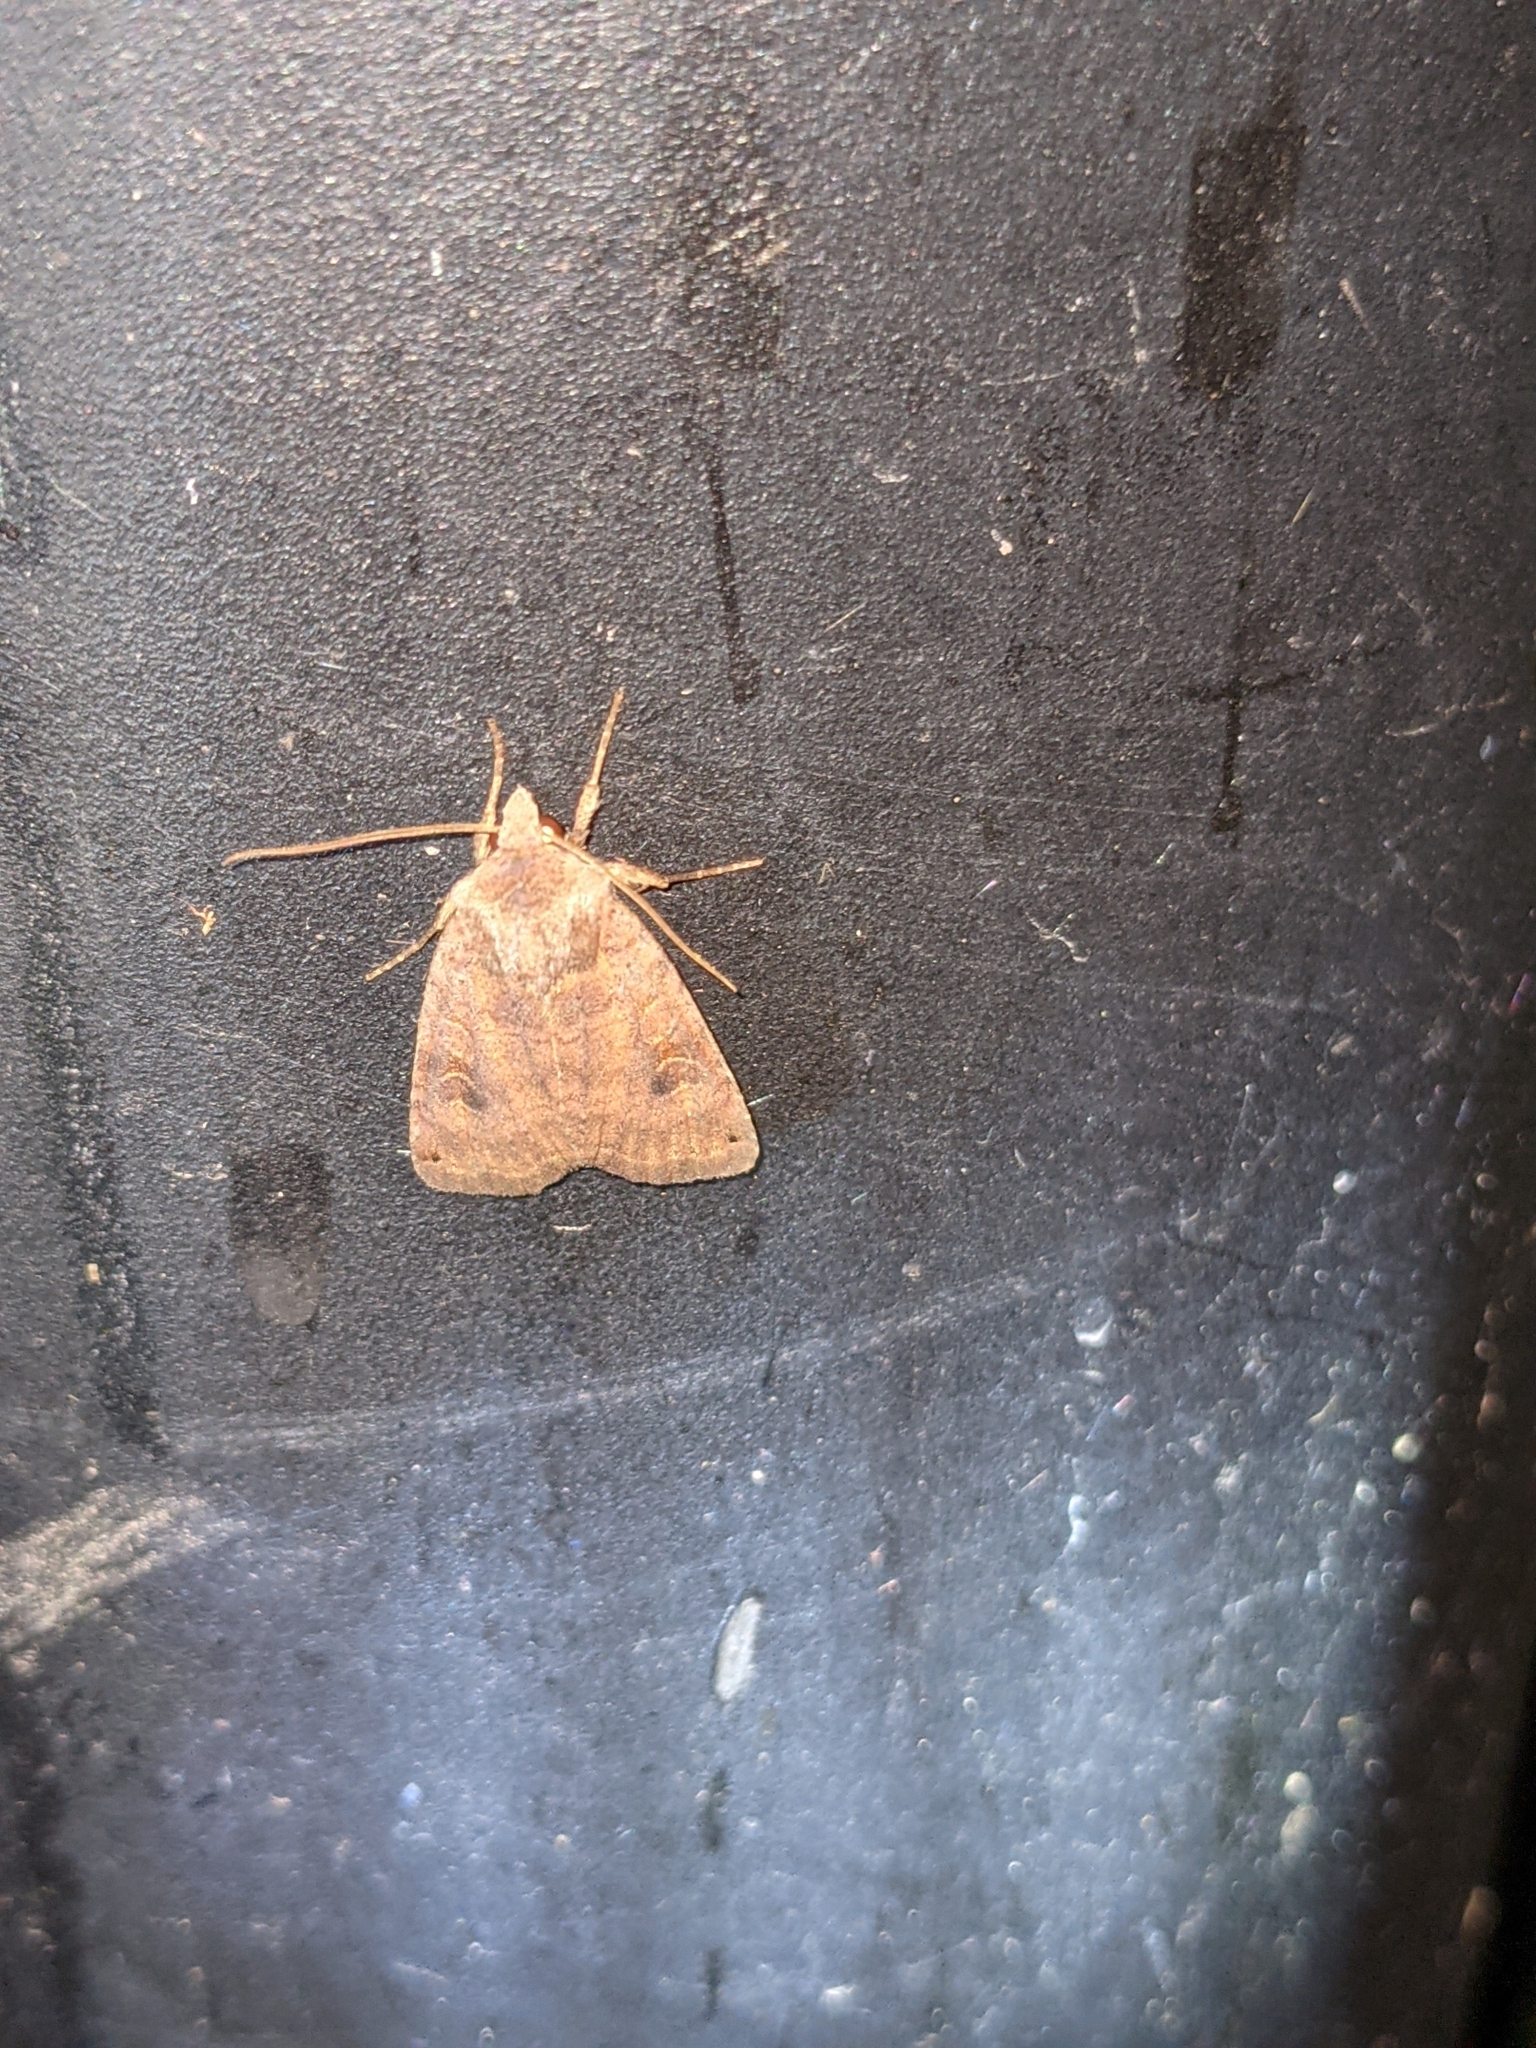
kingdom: Animalia
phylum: Arthropoda
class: Insecta
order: Lepidoptera
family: Noctuidae
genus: Agrochola
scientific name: Agrochola bicolorago
